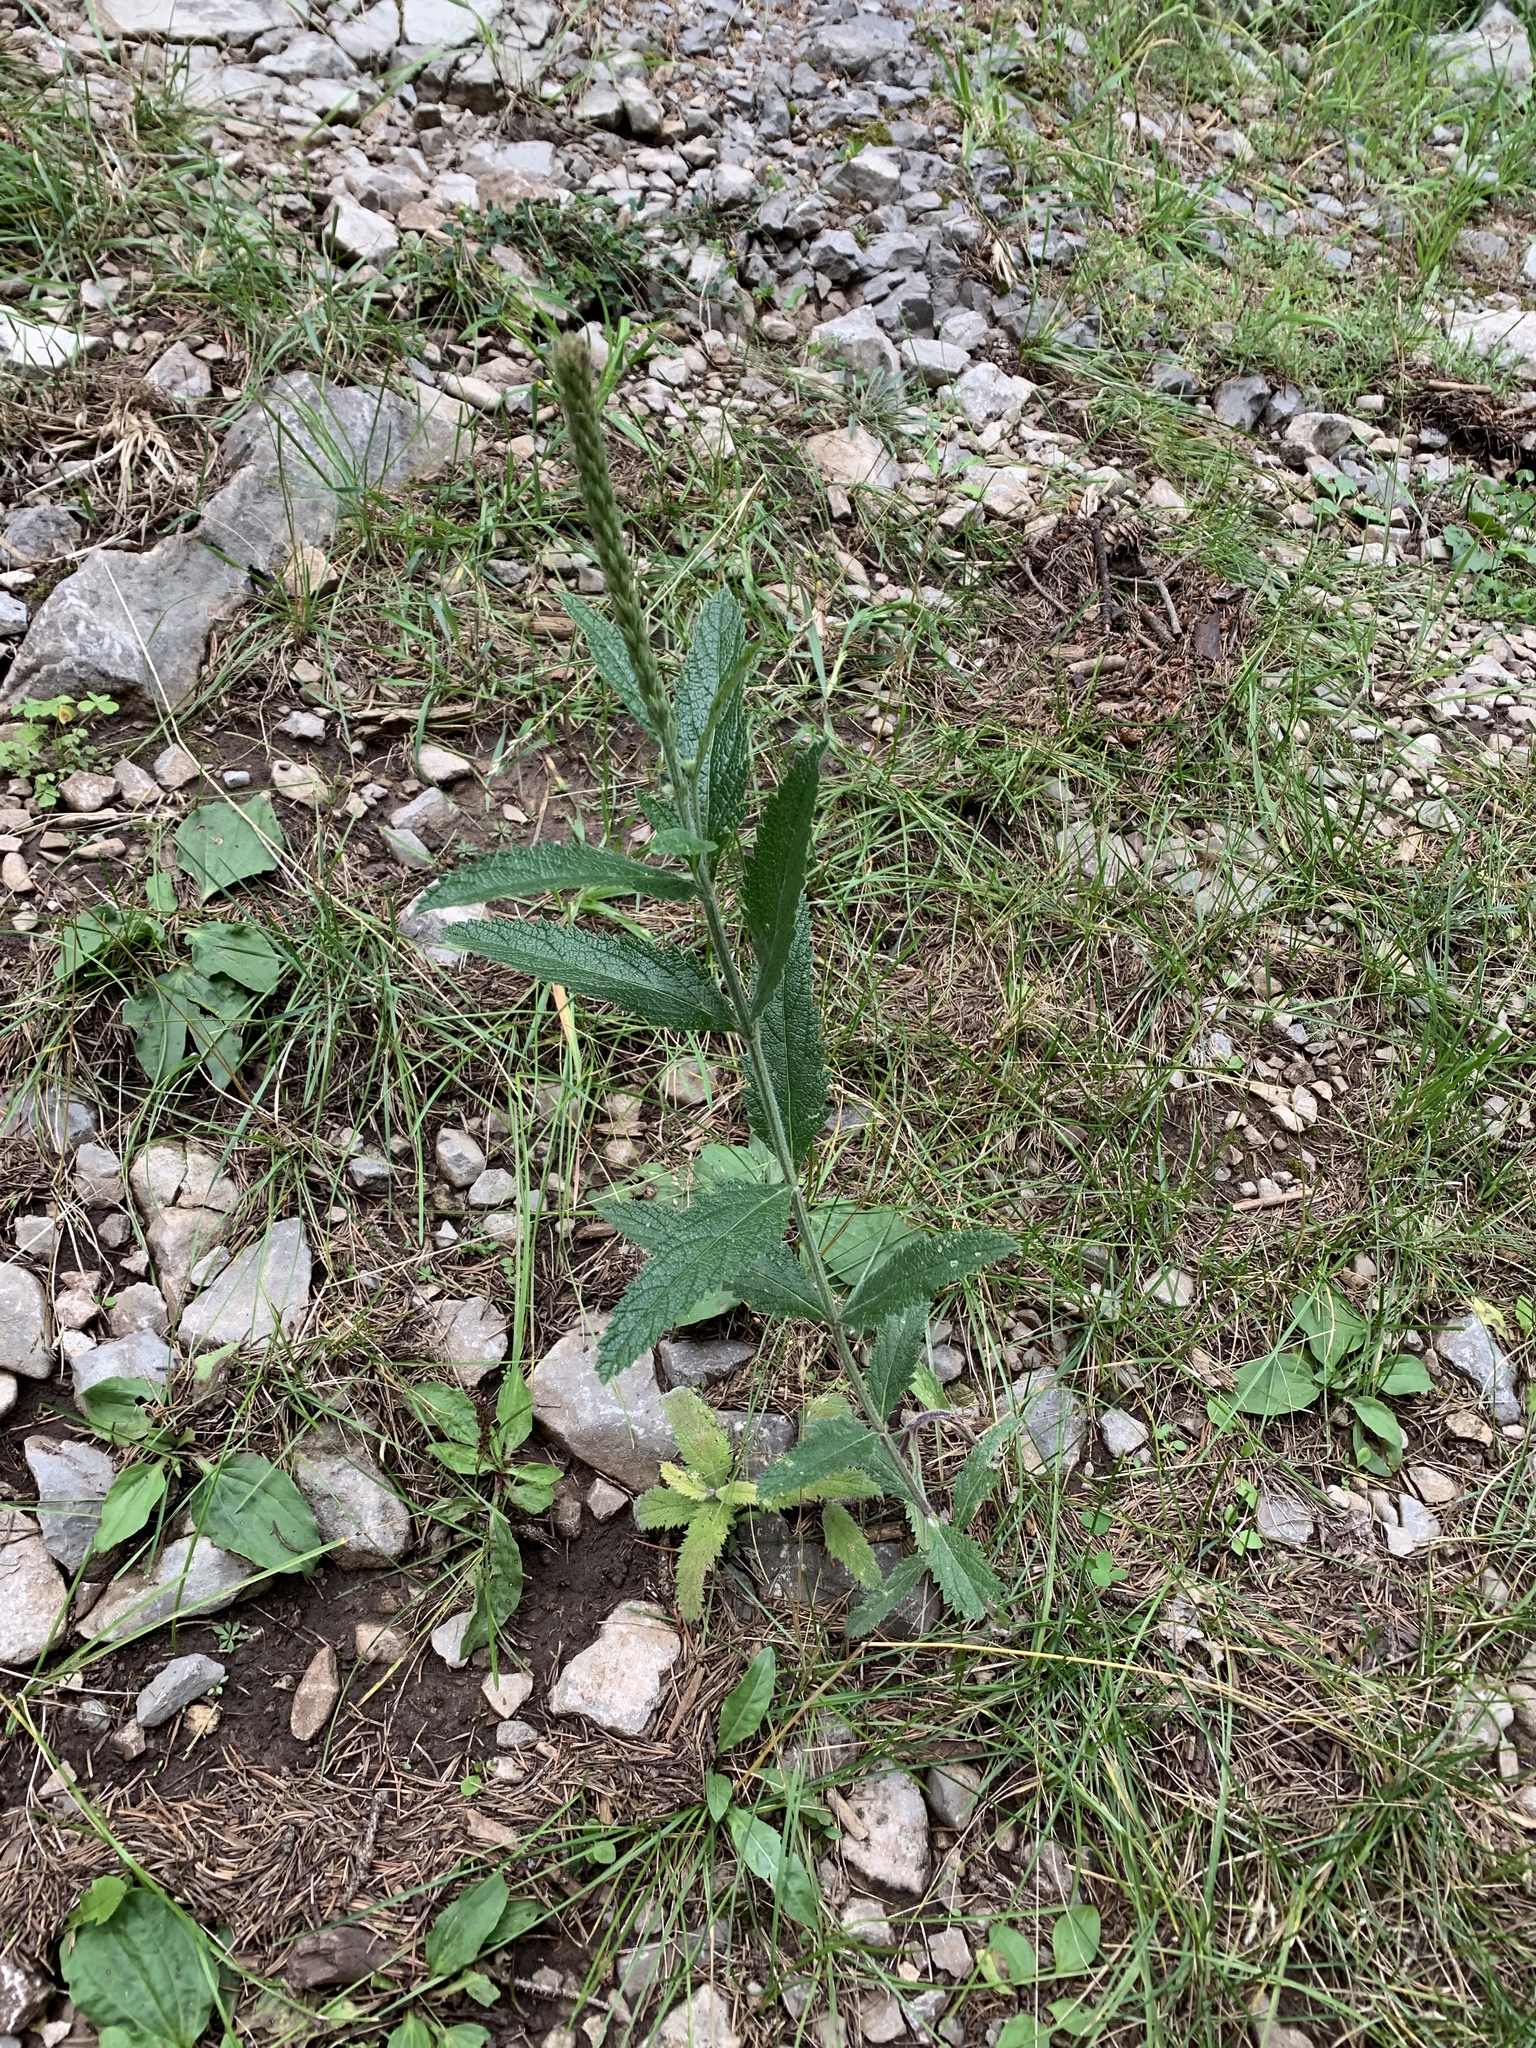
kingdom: Plantae
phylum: Tracheophyta
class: Magnoliopsida
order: Lamiales
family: Verbenaceae
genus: Verbena
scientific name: Verbena macdougalii
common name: New mexico vervain
